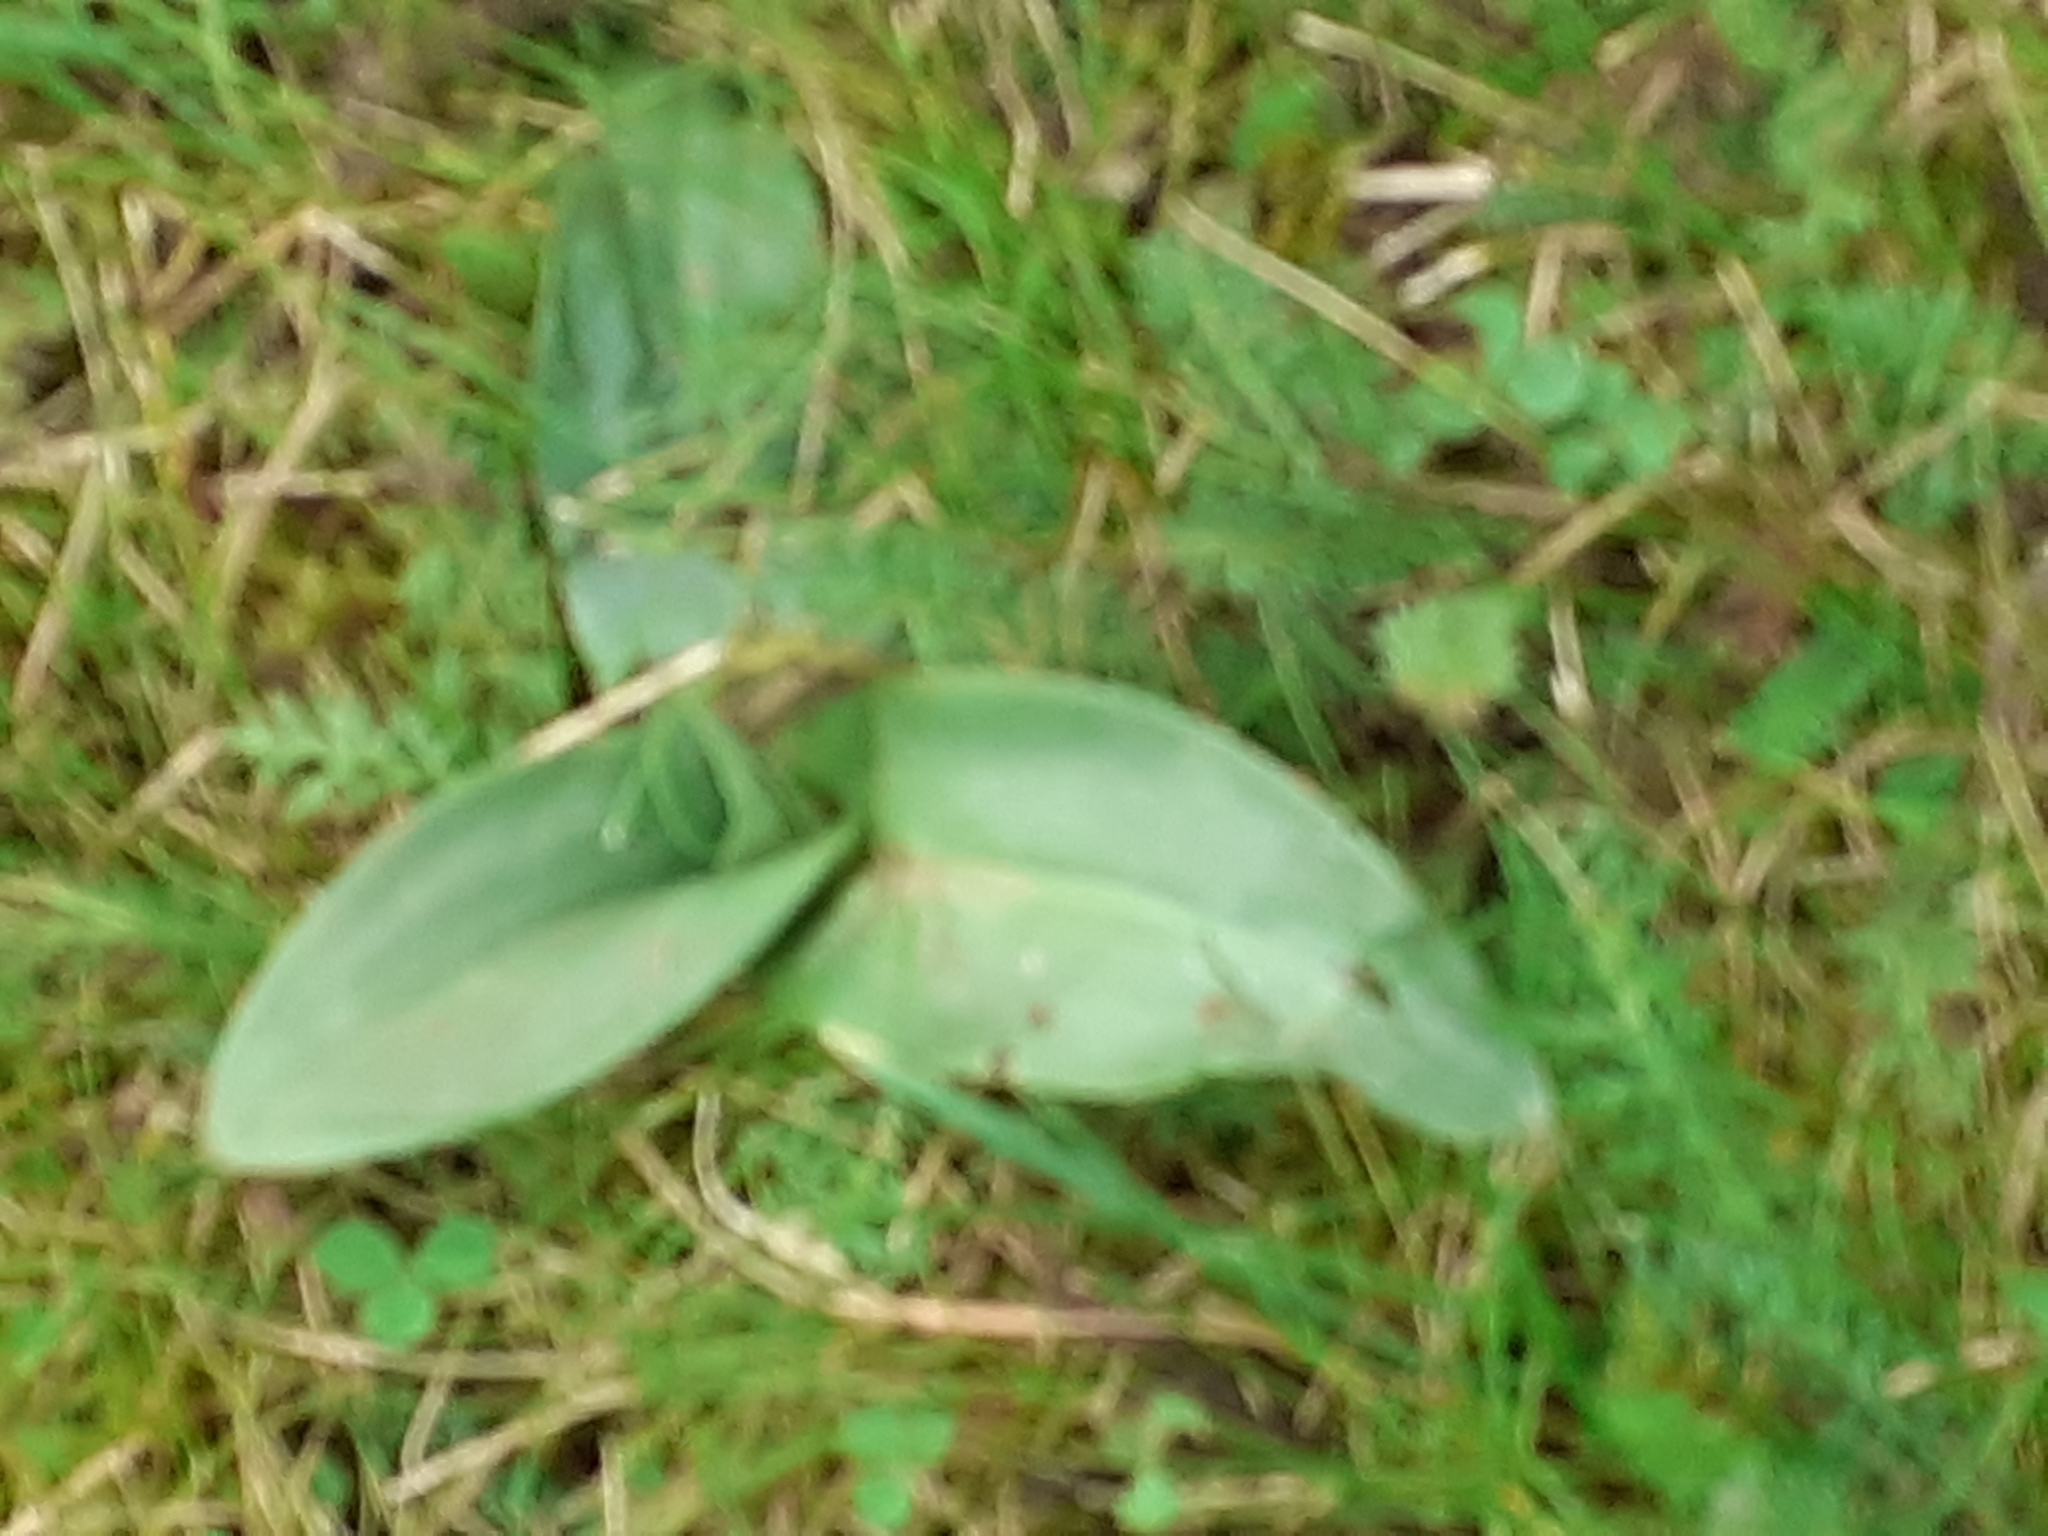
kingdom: Plantae
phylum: Tracheophyta
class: Liliopsida
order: Asparagales
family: Orchidaceae
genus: Ophrys
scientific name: Ophrys apifera
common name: Bee orchid
